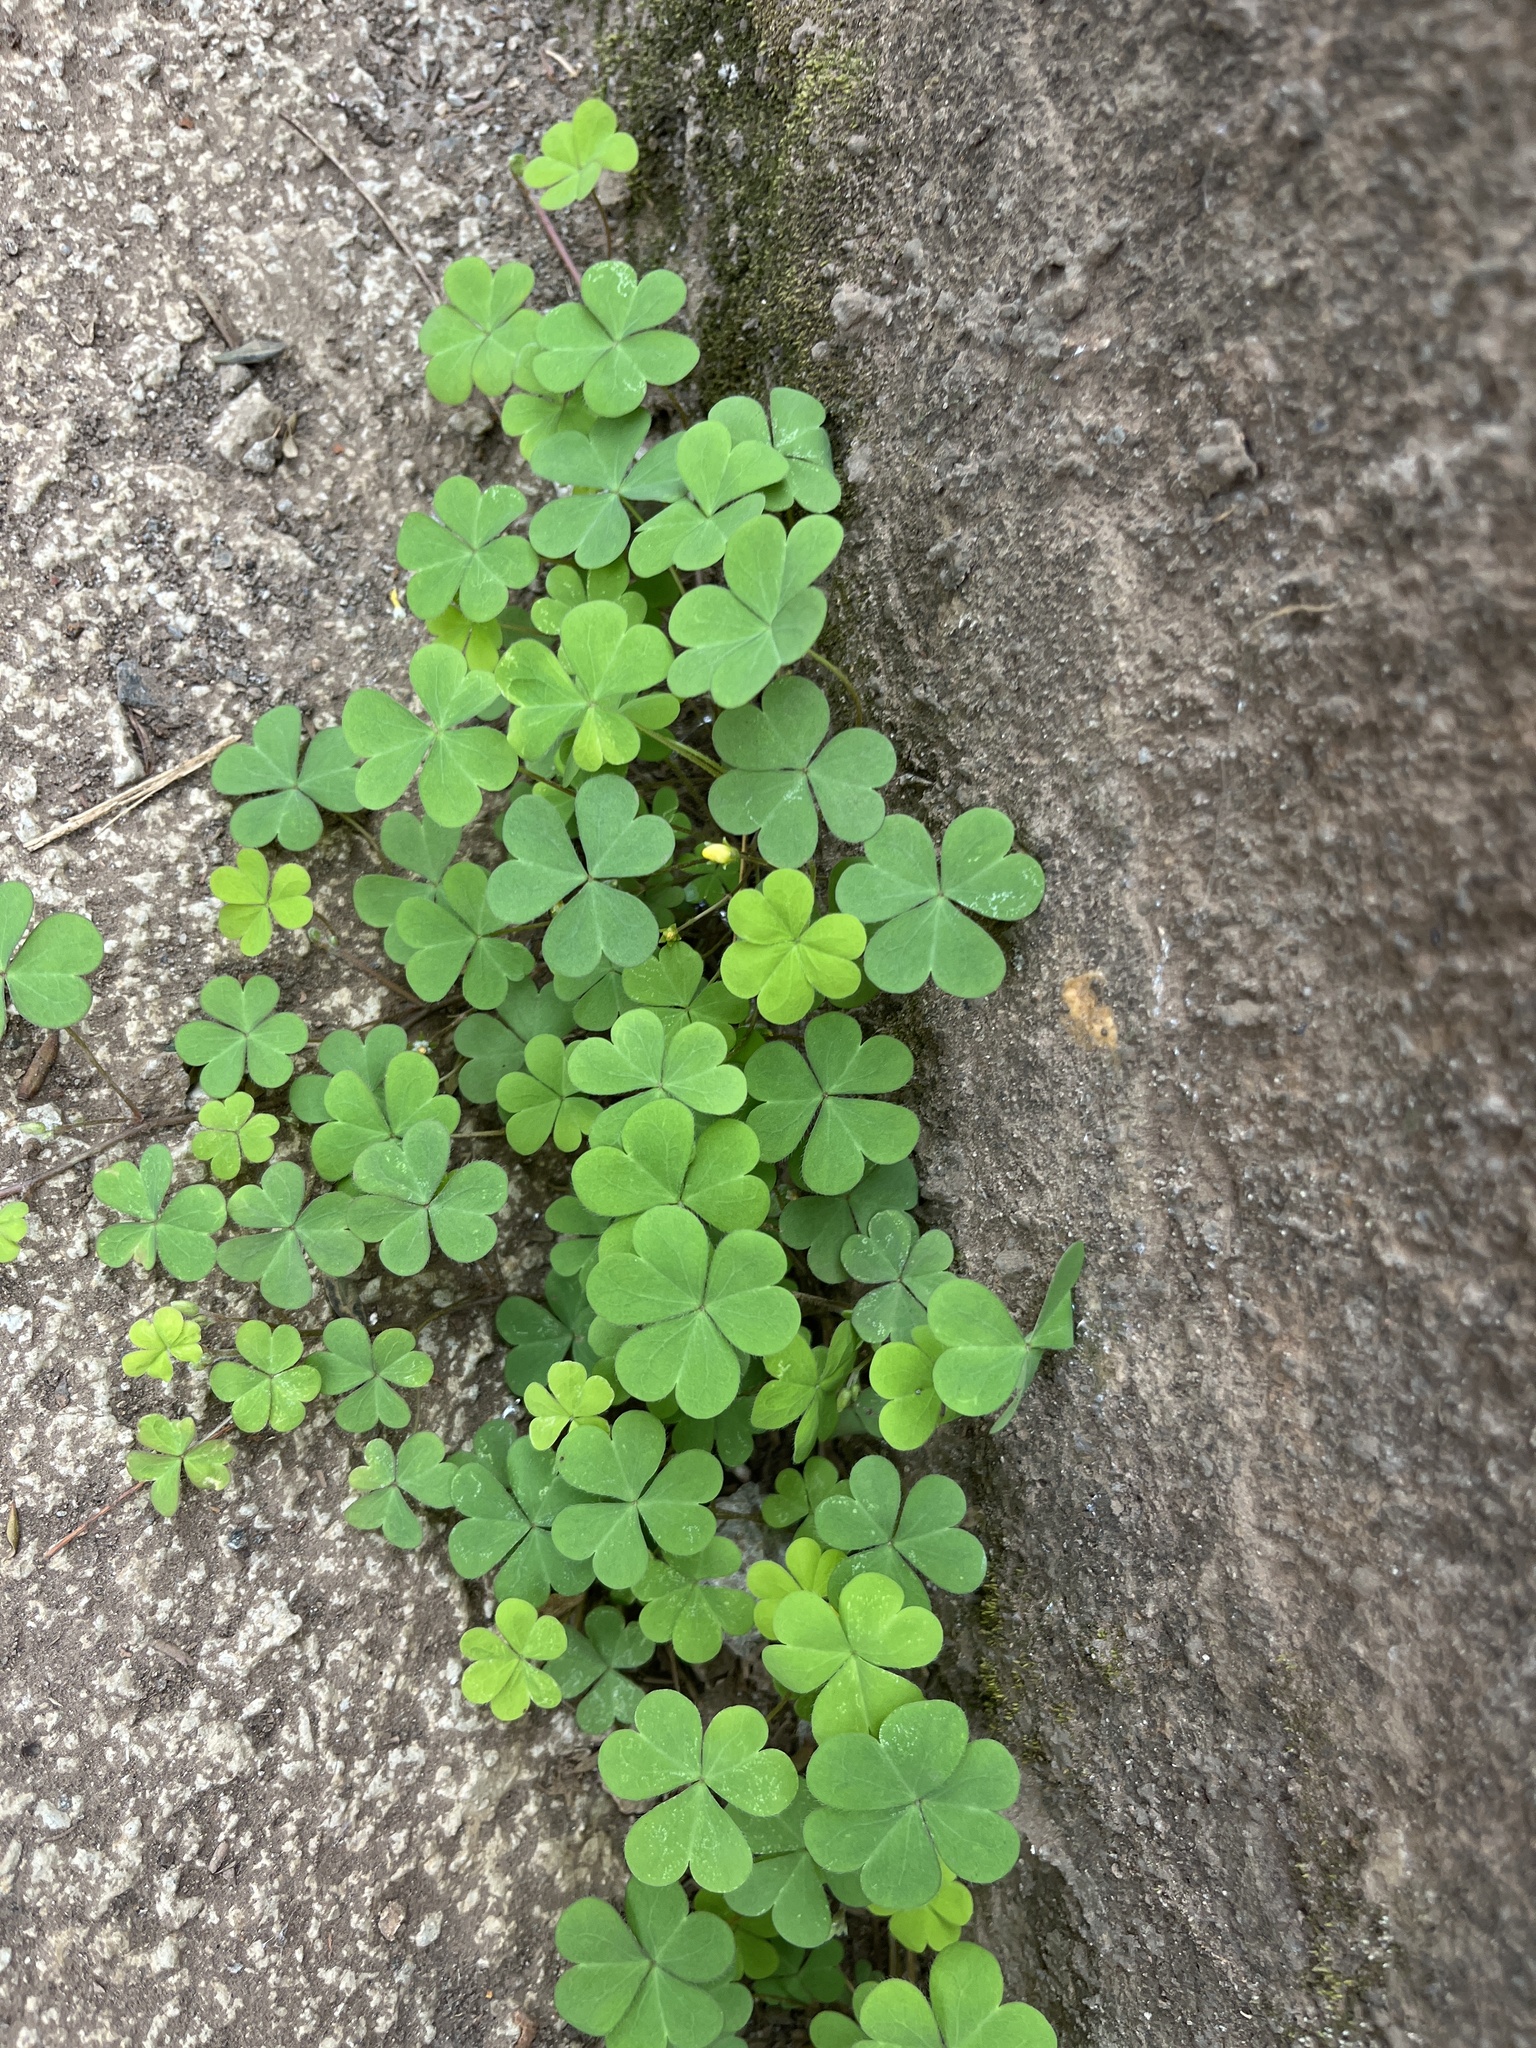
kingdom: Plantae
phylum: Tracheophyta
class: Magnoliopsida
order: Oxalidales
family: Oxalidaceae
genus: Oxalis
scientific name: Oxalis corniculata
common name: Procumbent yellow-sorrel
